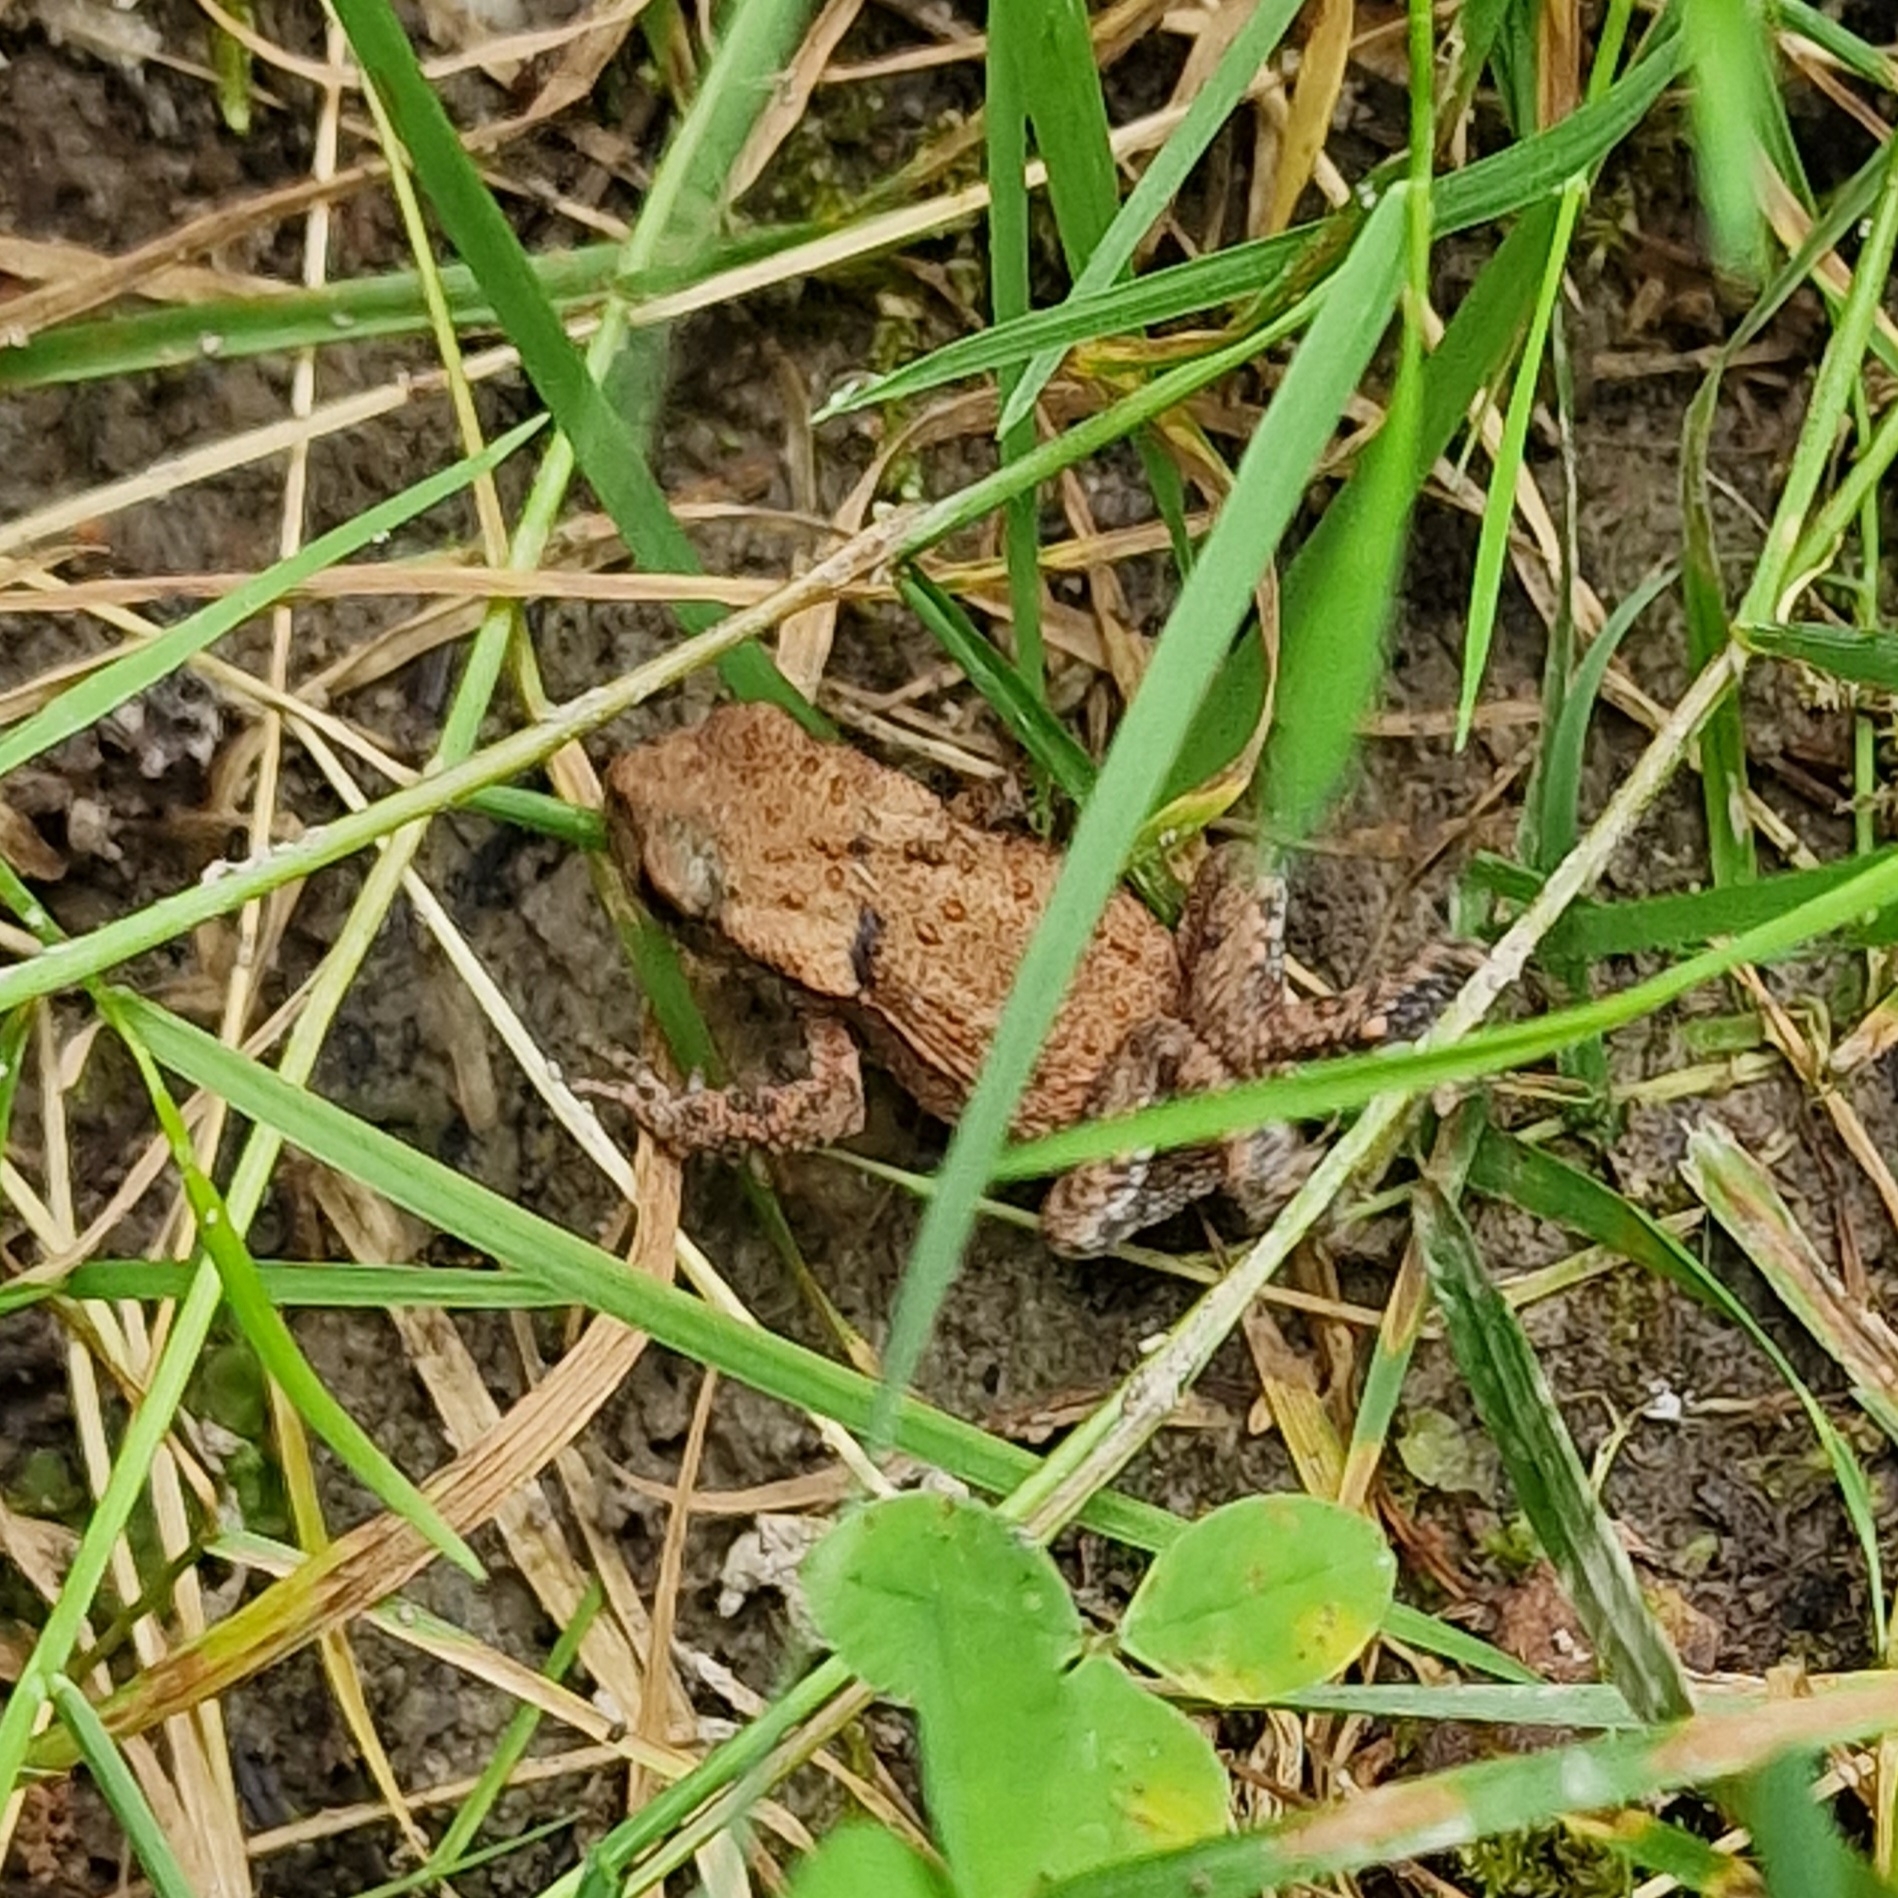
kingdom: Animalia
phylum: Chordata
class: Amphibia
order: Anura
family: Bufonidae
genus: Bufo
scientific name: Bufo bufo
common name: Common toad
